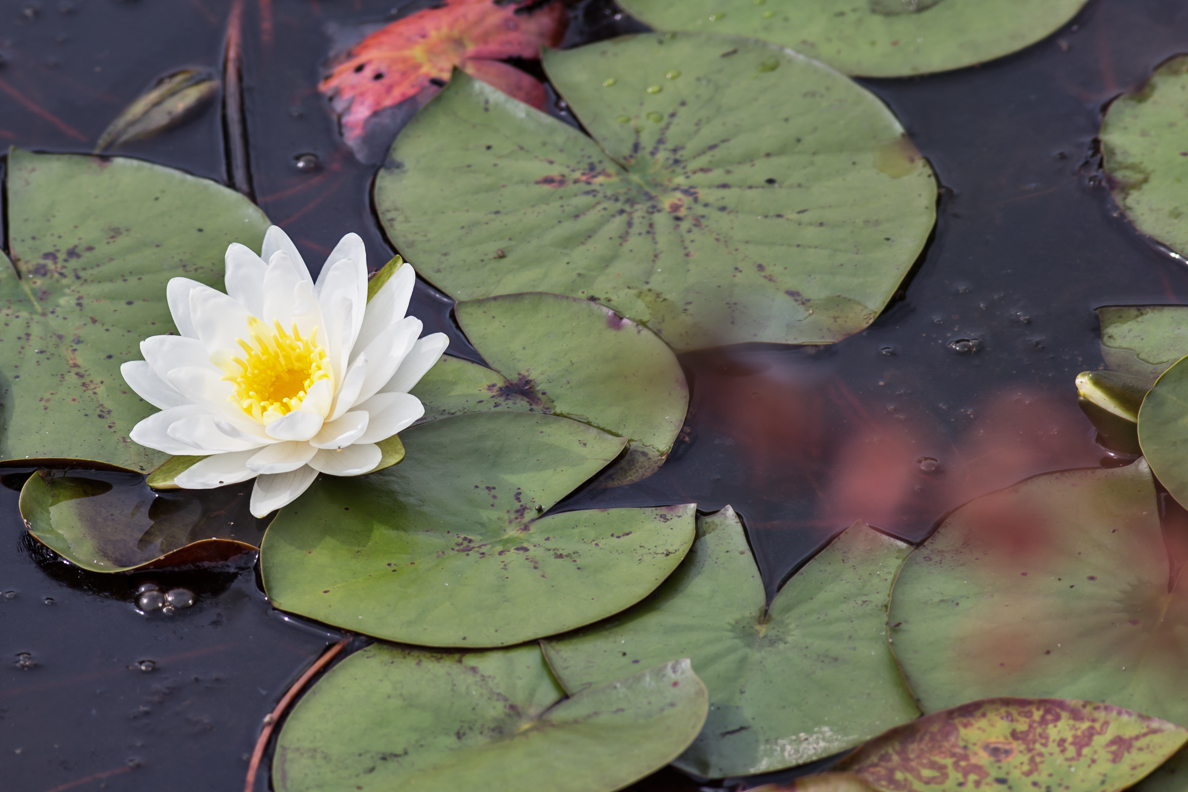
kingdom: Plantae
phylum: Tracheophyta
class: Magnoliopsida
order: Nymphaeales
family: Nymphaeaceae
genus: Nymphaea
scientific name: Nymphaea odorata
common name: Fragrant water-lily
